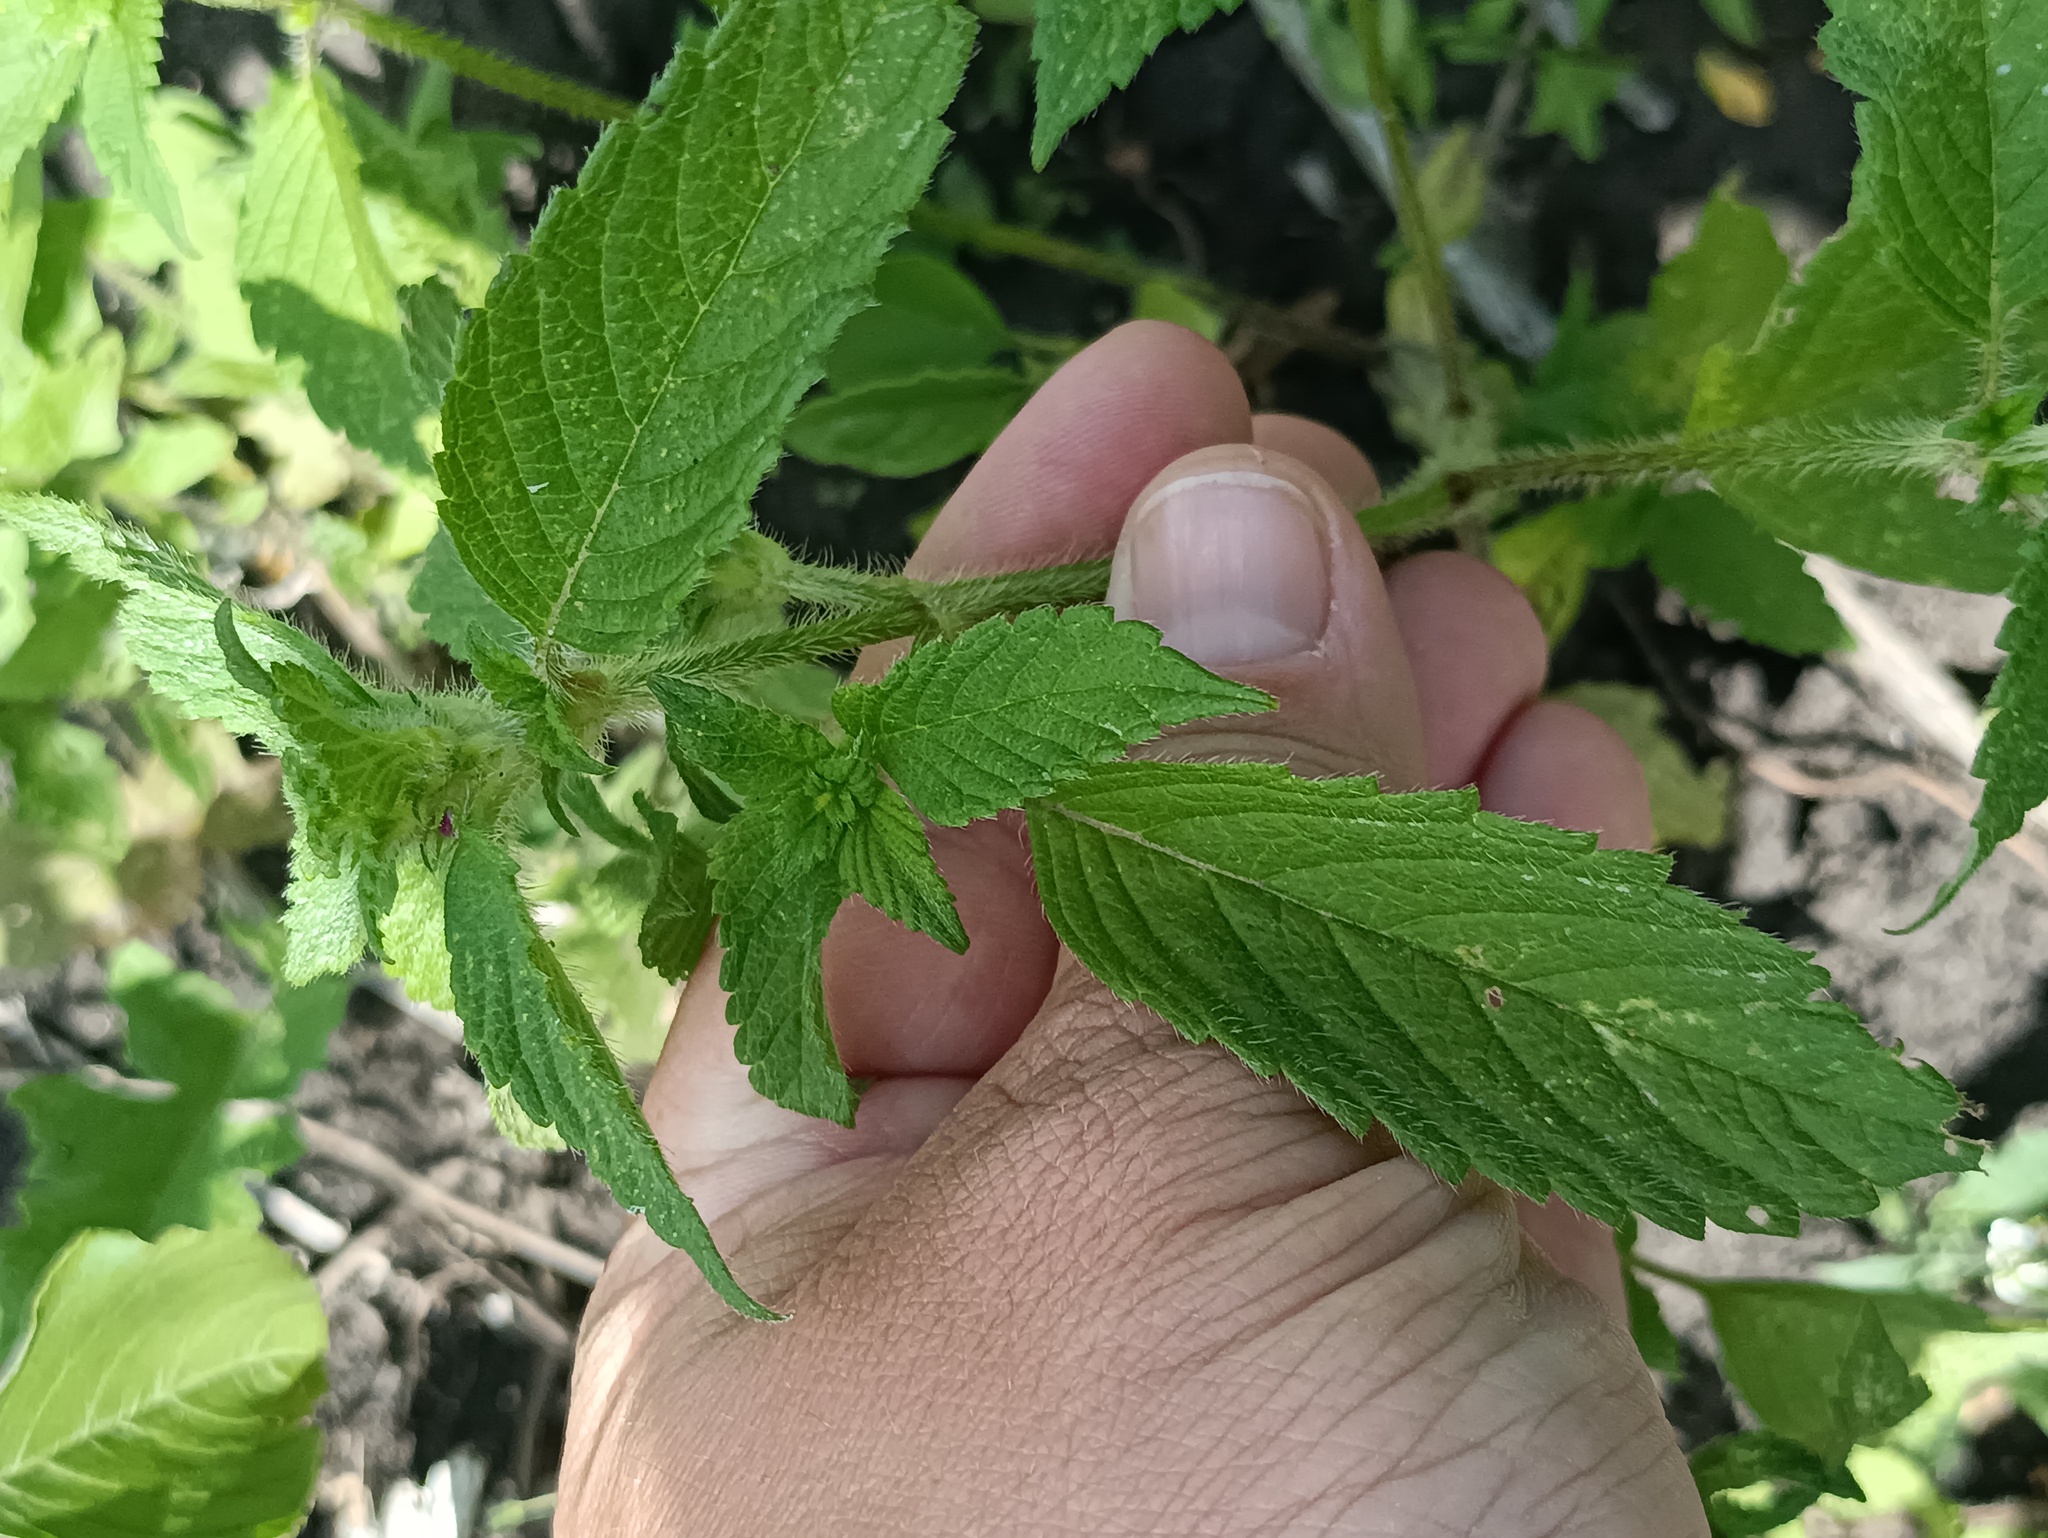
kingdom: Plantae
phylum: Tracheophyta
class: Magnoliopsida
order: Lamiales
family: Lamiaceae
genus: Galeopsis
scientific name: Galeopsis bifida
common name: Bifid hemp-nettle
